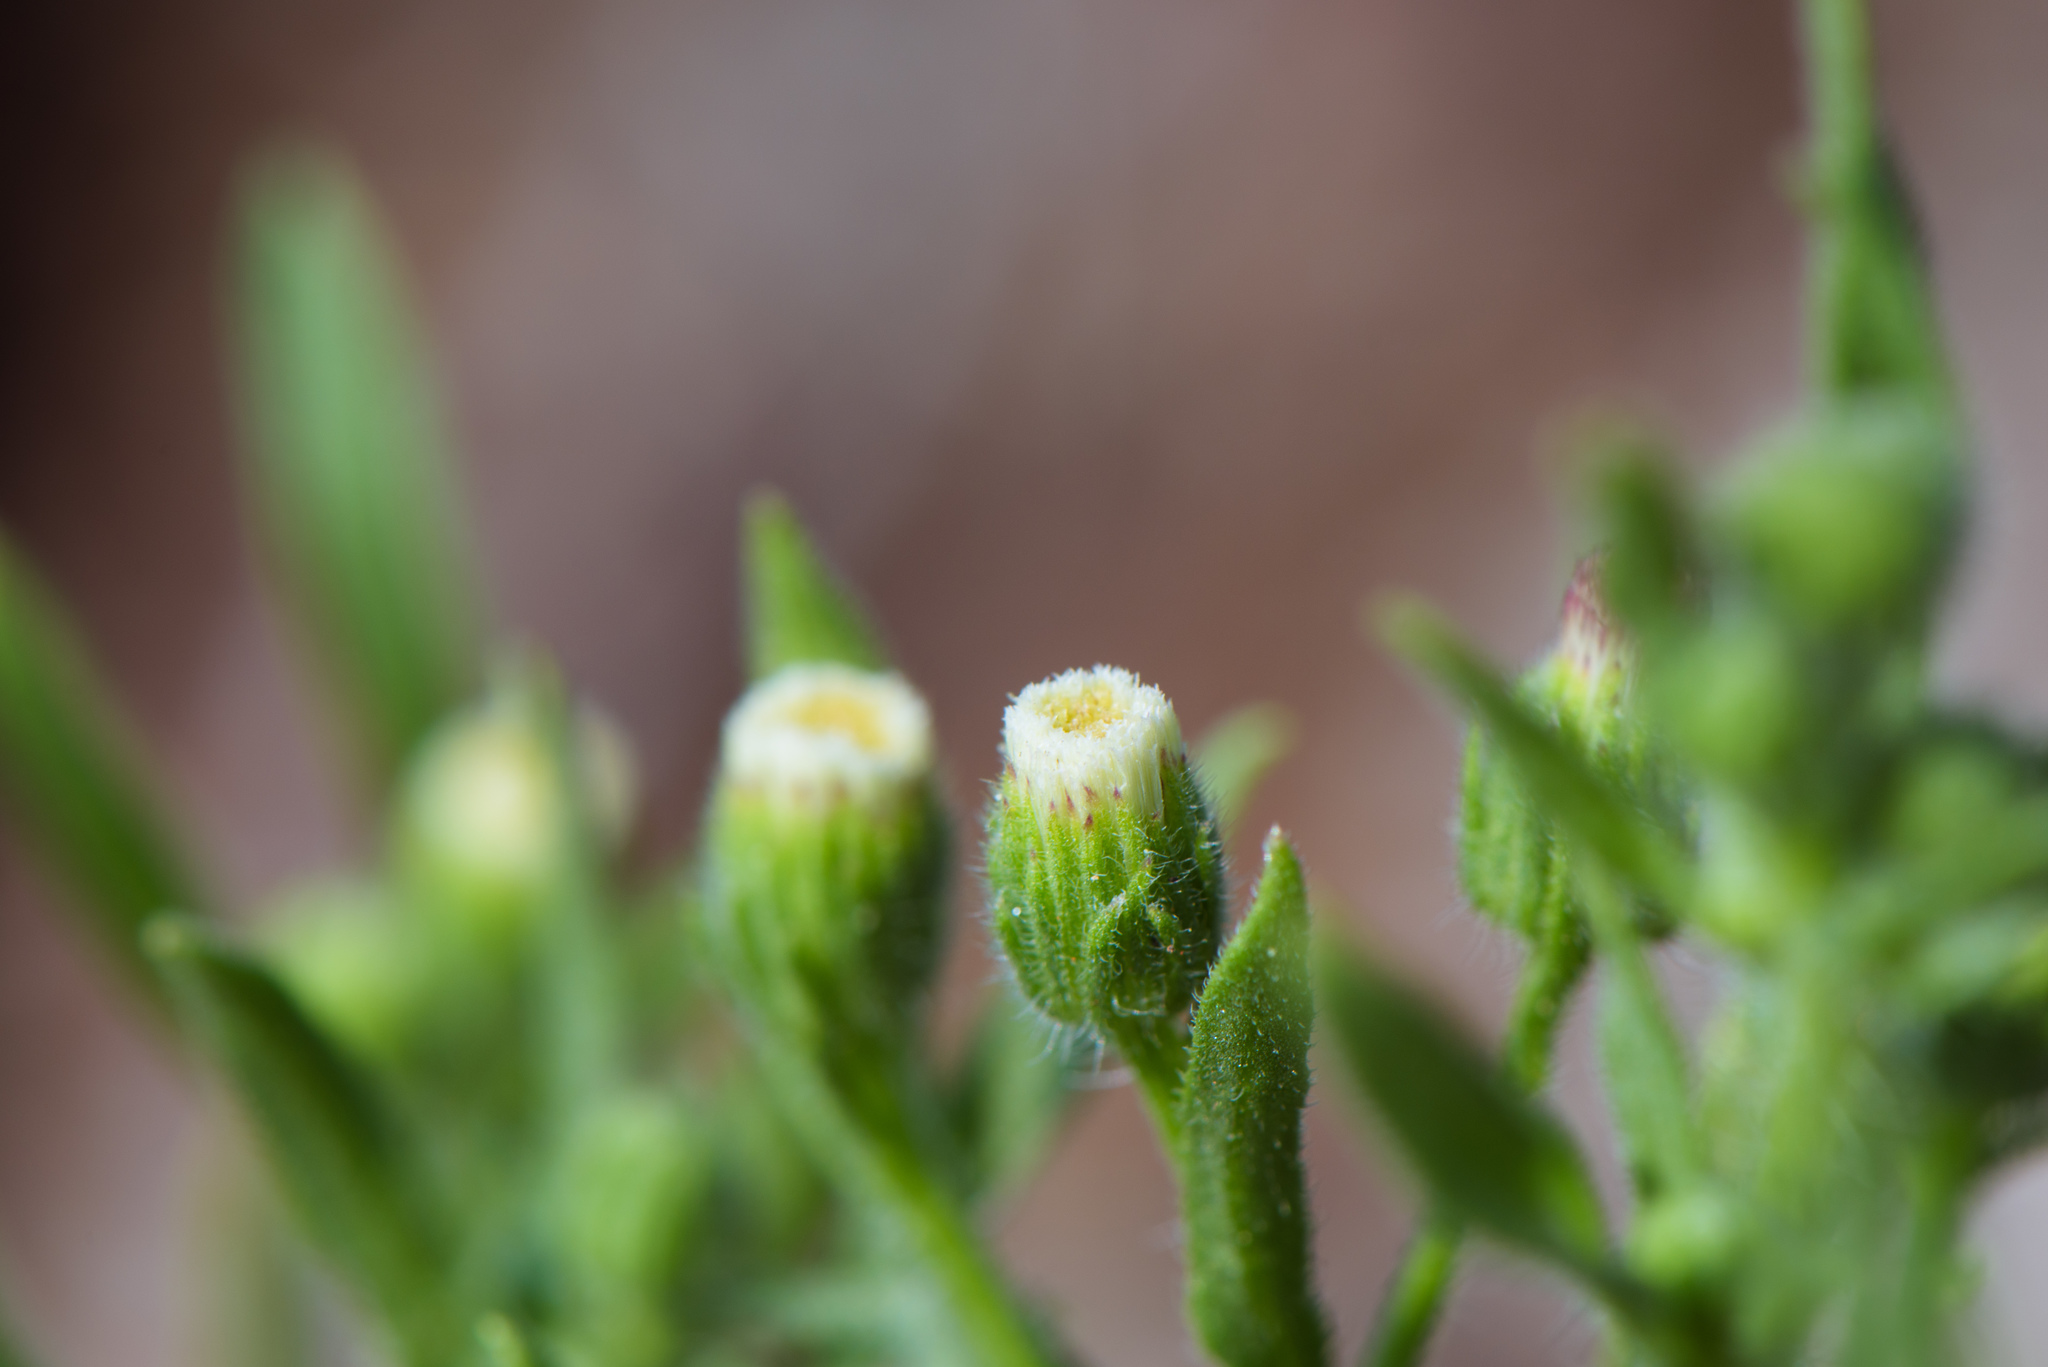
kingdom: Plantae
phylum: Tracheophyta
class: Magnoliopsida
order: Asterales
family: Asteraceae
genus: Erigeron
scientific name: Erigeron bonariensis
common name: Argentine fleabane
